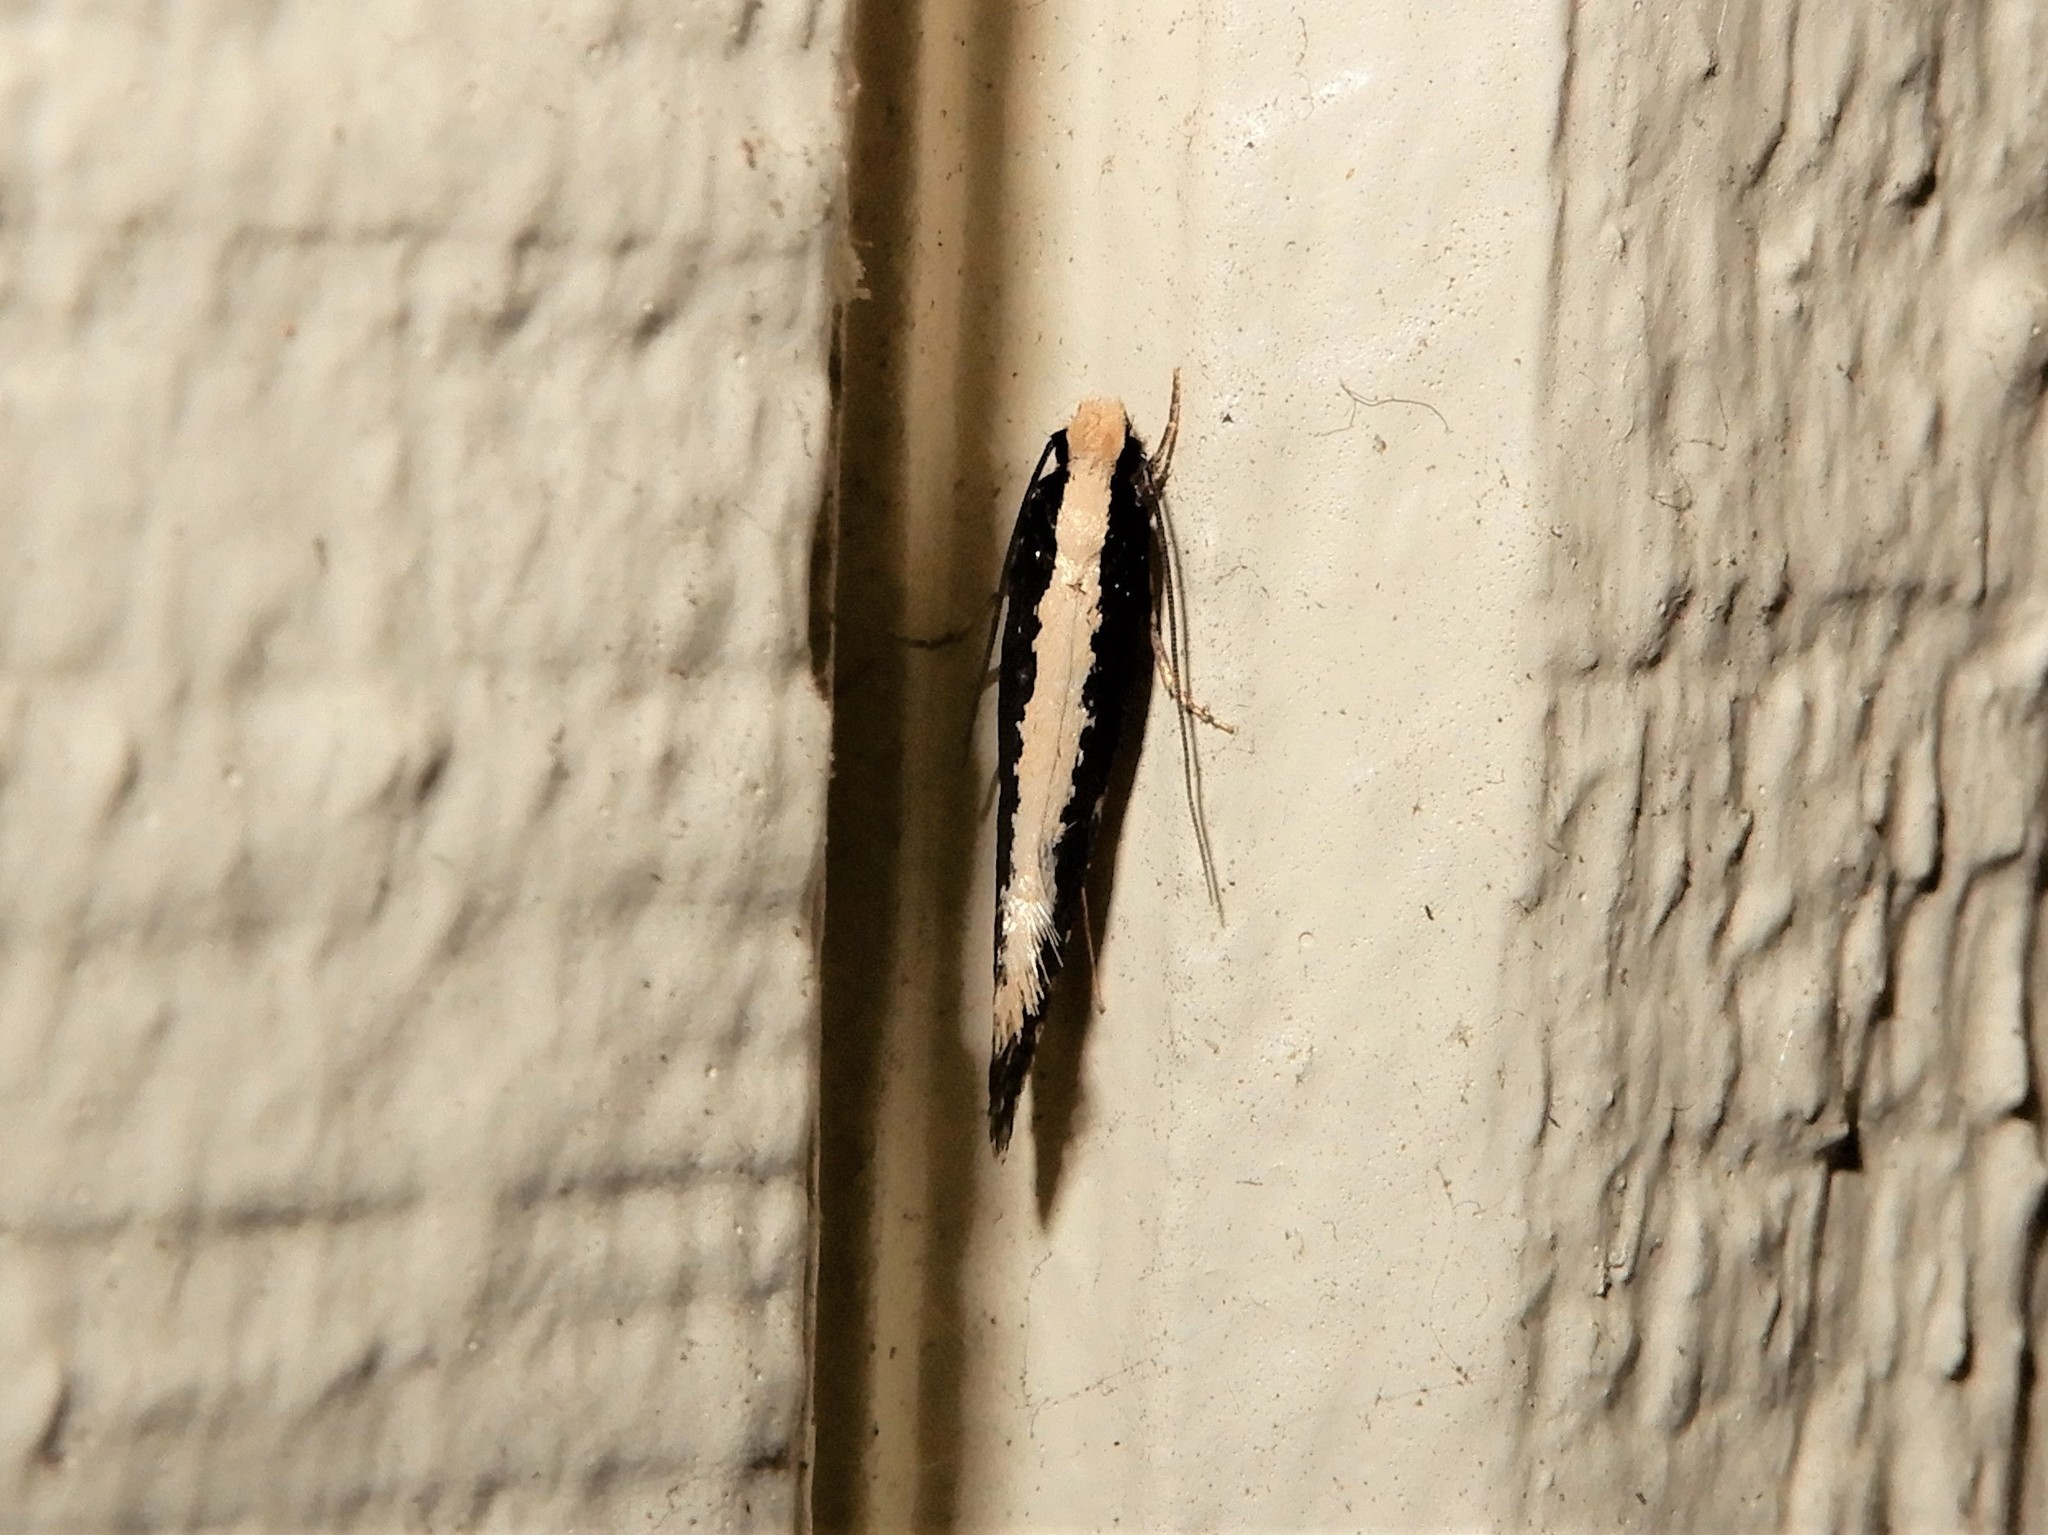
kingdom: Animalia
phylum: Arthropoda
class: Insecta
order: Lepidoptera
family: Tineidae
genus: Monopis
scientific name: Monopis ethelella
